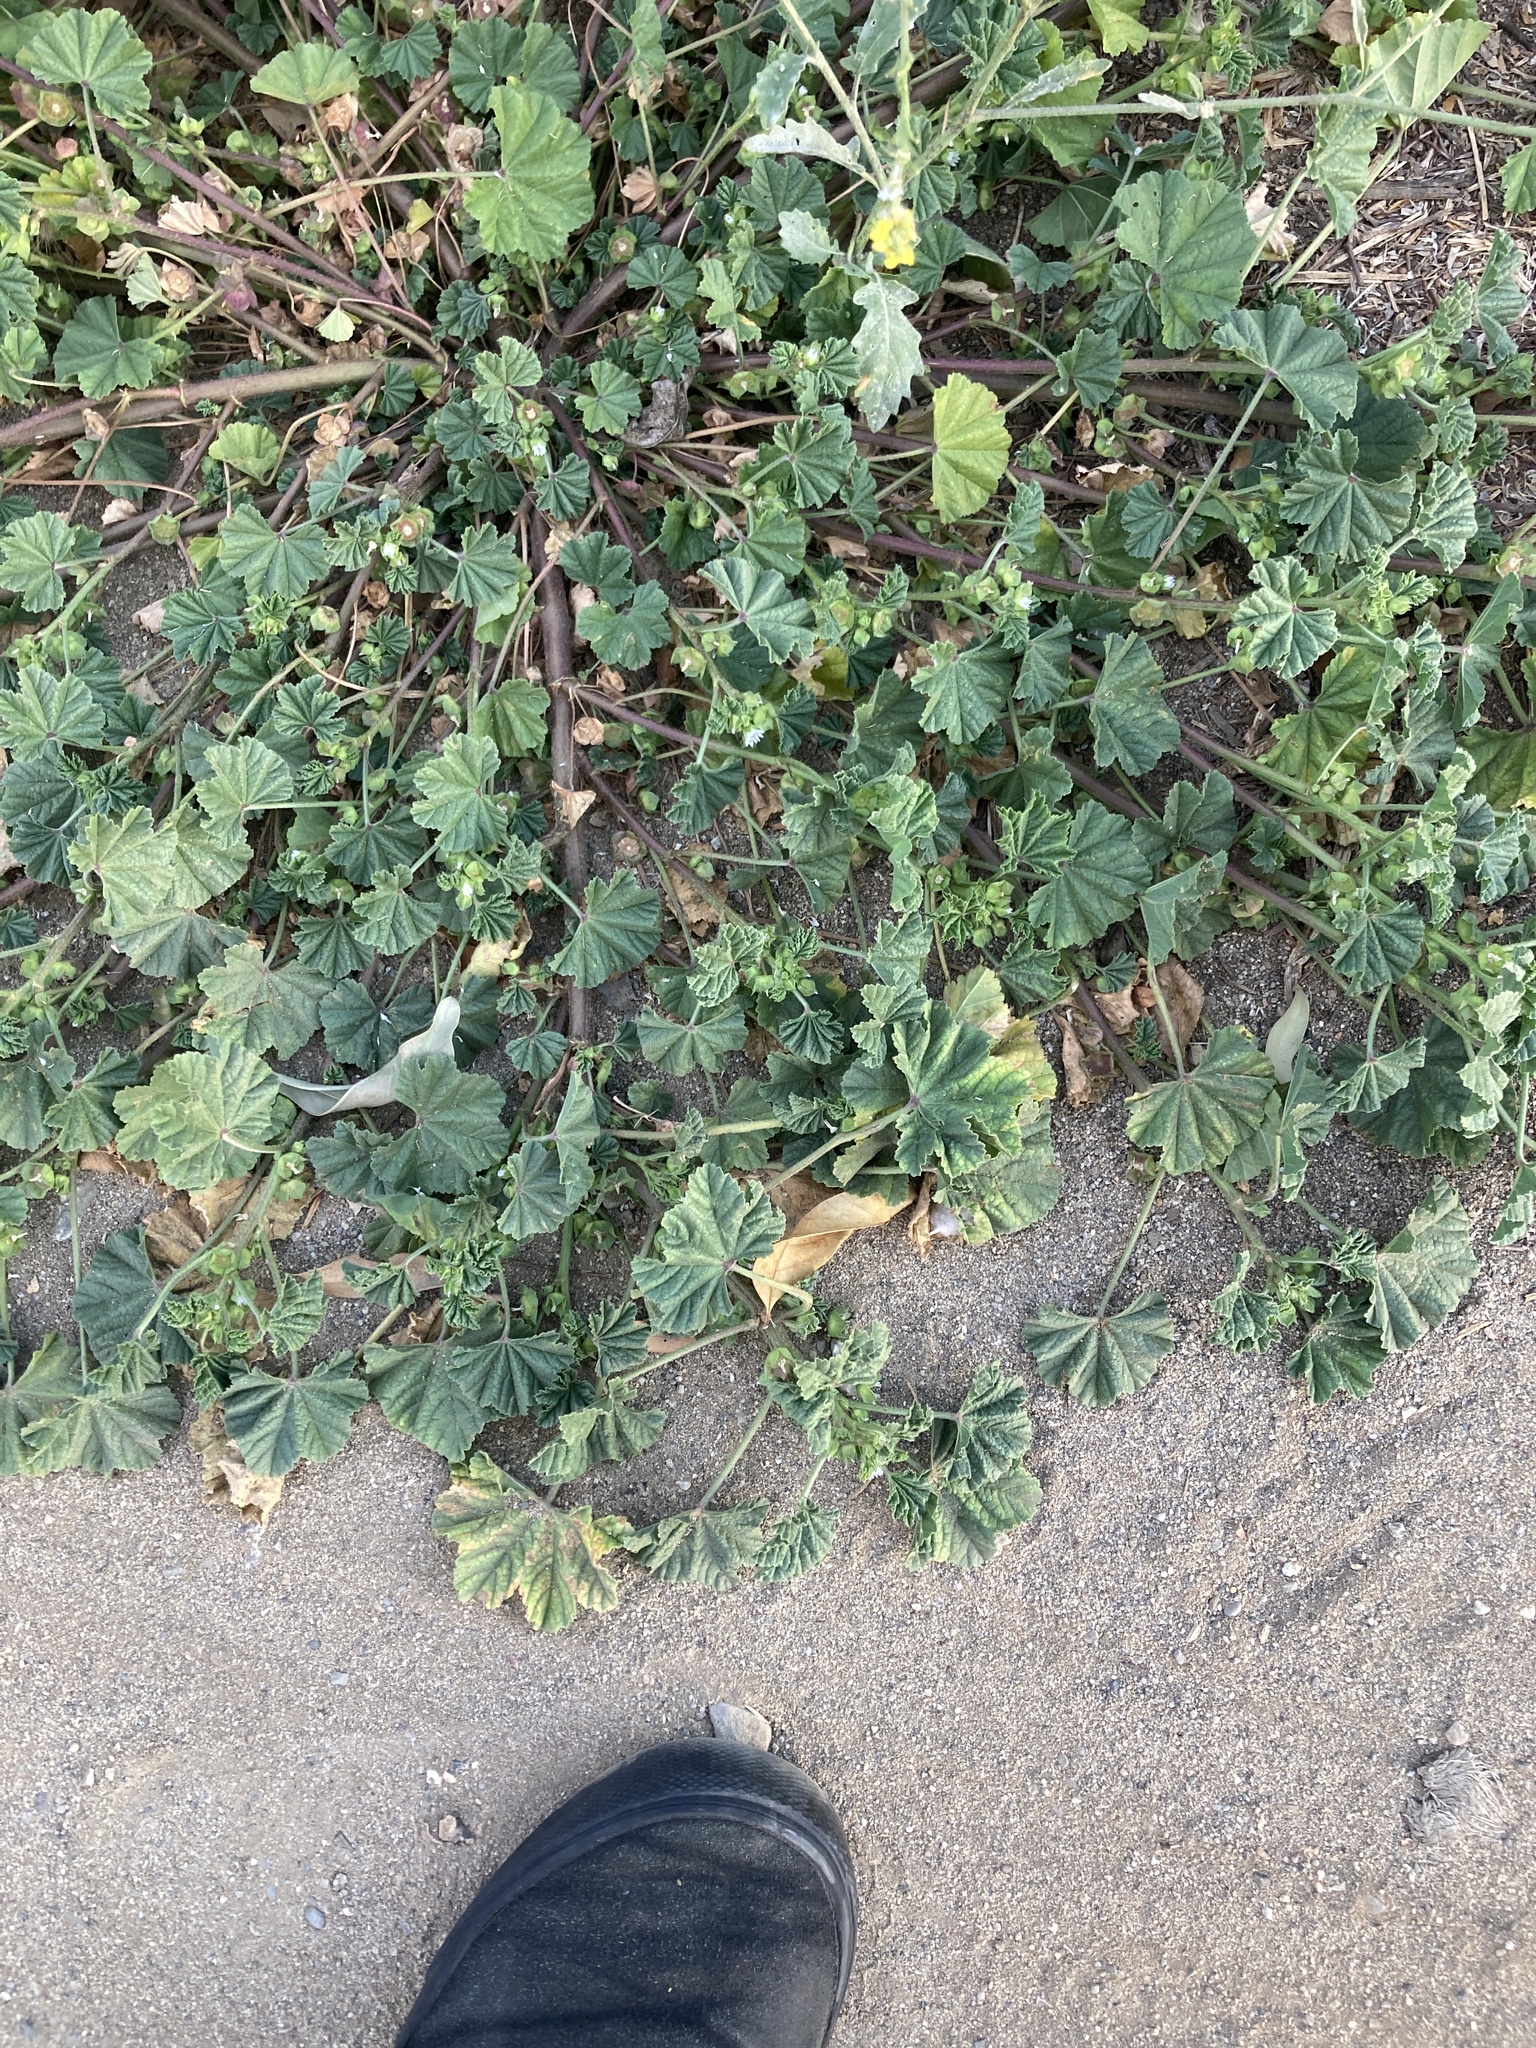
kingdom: Plantae
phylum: Tracheophyta
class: Magnoliopsida
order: Malvales
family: Malvaceae
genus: Malva
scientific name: Malva parviflora
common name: Least mallow
